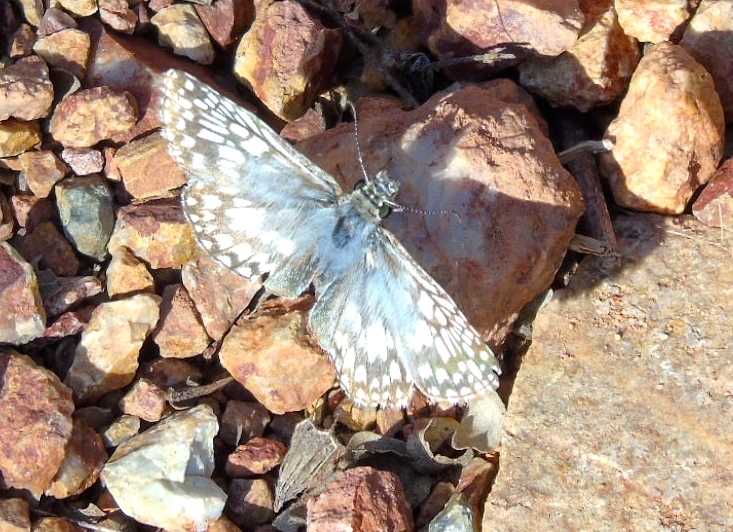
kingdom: Animalia
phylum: Arthropoda
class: Insecta
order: Lepidoptera
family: Hesperiidae
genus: Burnsius
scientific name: Burnsius
